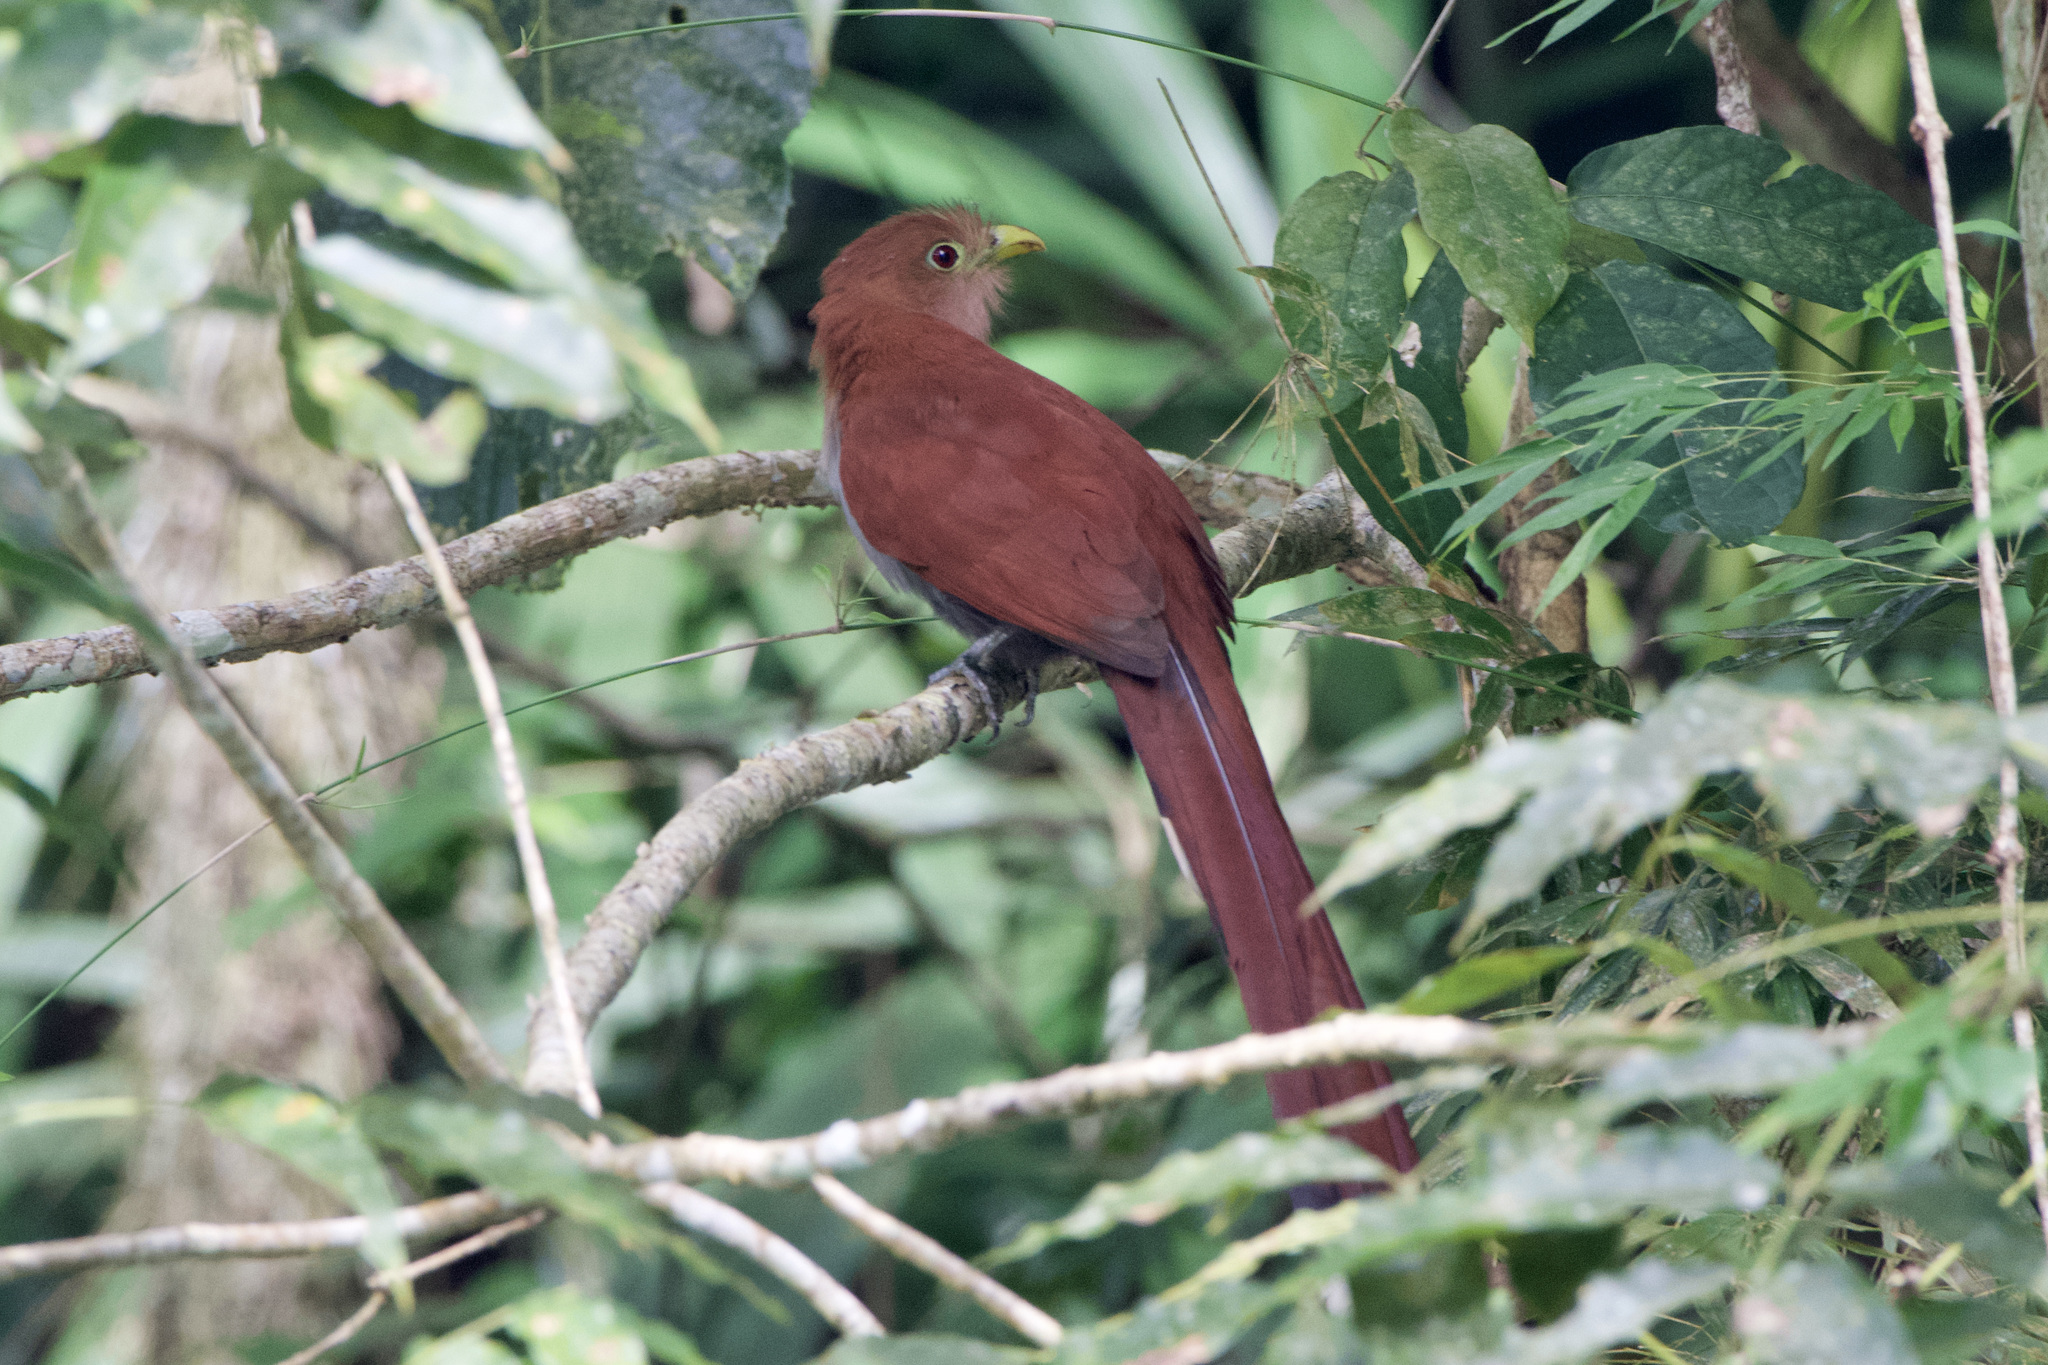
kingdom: Animalia
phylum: Chordata
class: Aves
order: Cuculiformes
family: Cuculidae
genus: Piaya
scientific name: Piaya cayana
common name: Squirrel cuckoo
